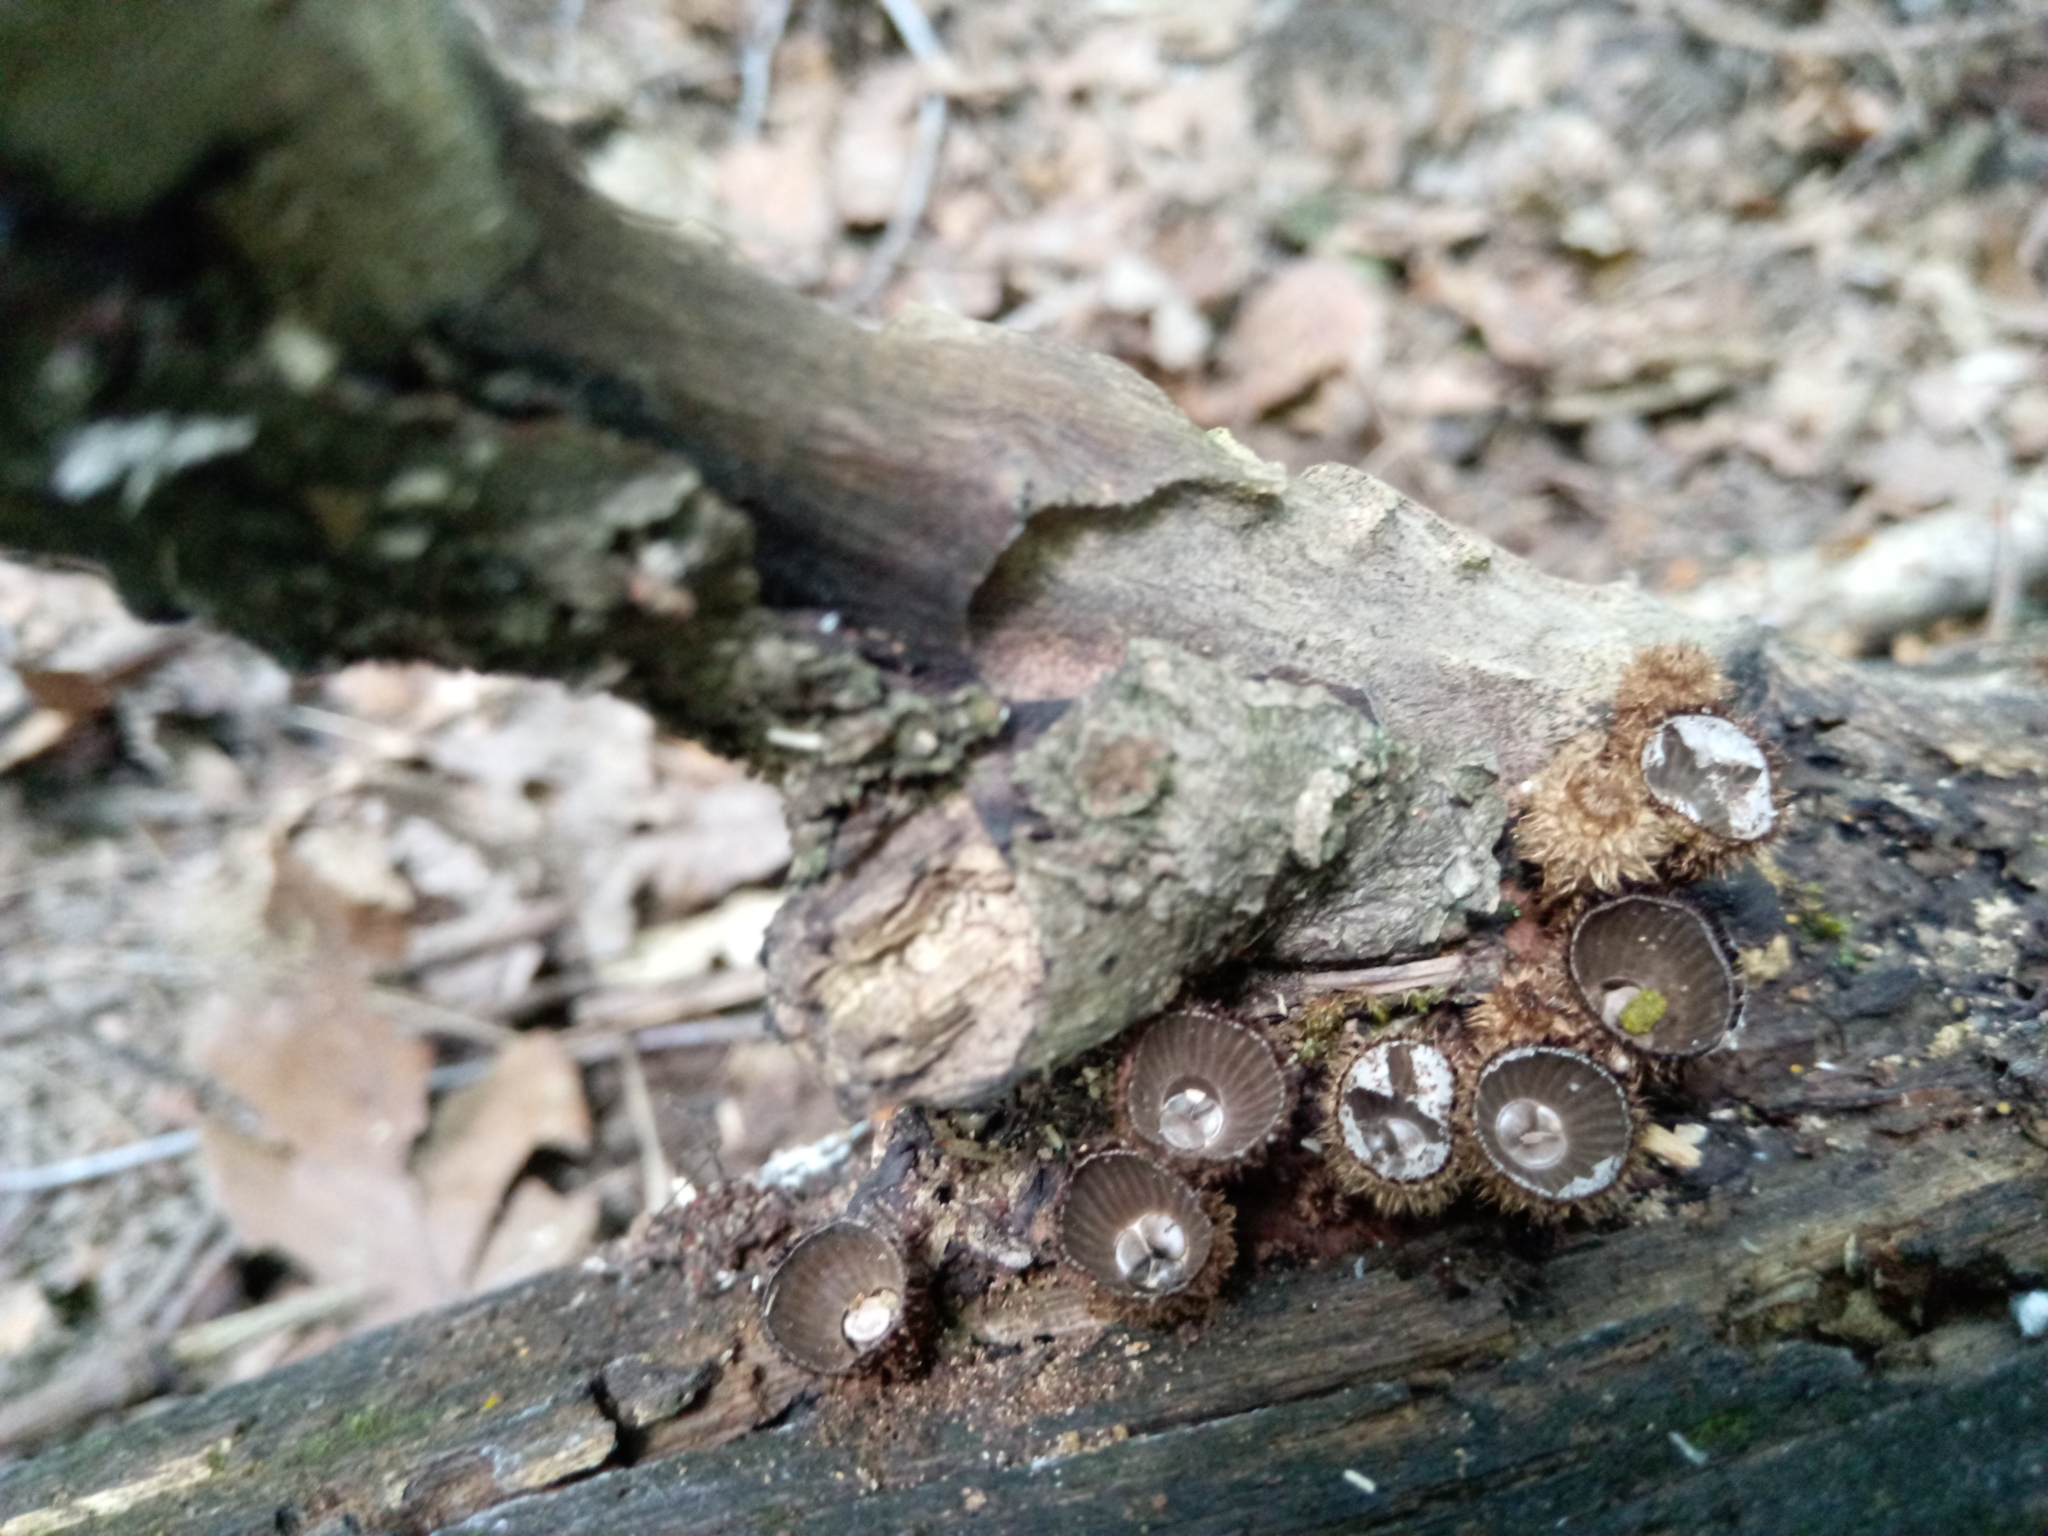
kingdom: Fungi
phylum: Basidiomycota
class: Agaricomycetes
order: Agaricales
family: Agaricaceae
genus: Cyathus
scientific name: Cyathus striatus
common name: Fluted bird's nest
